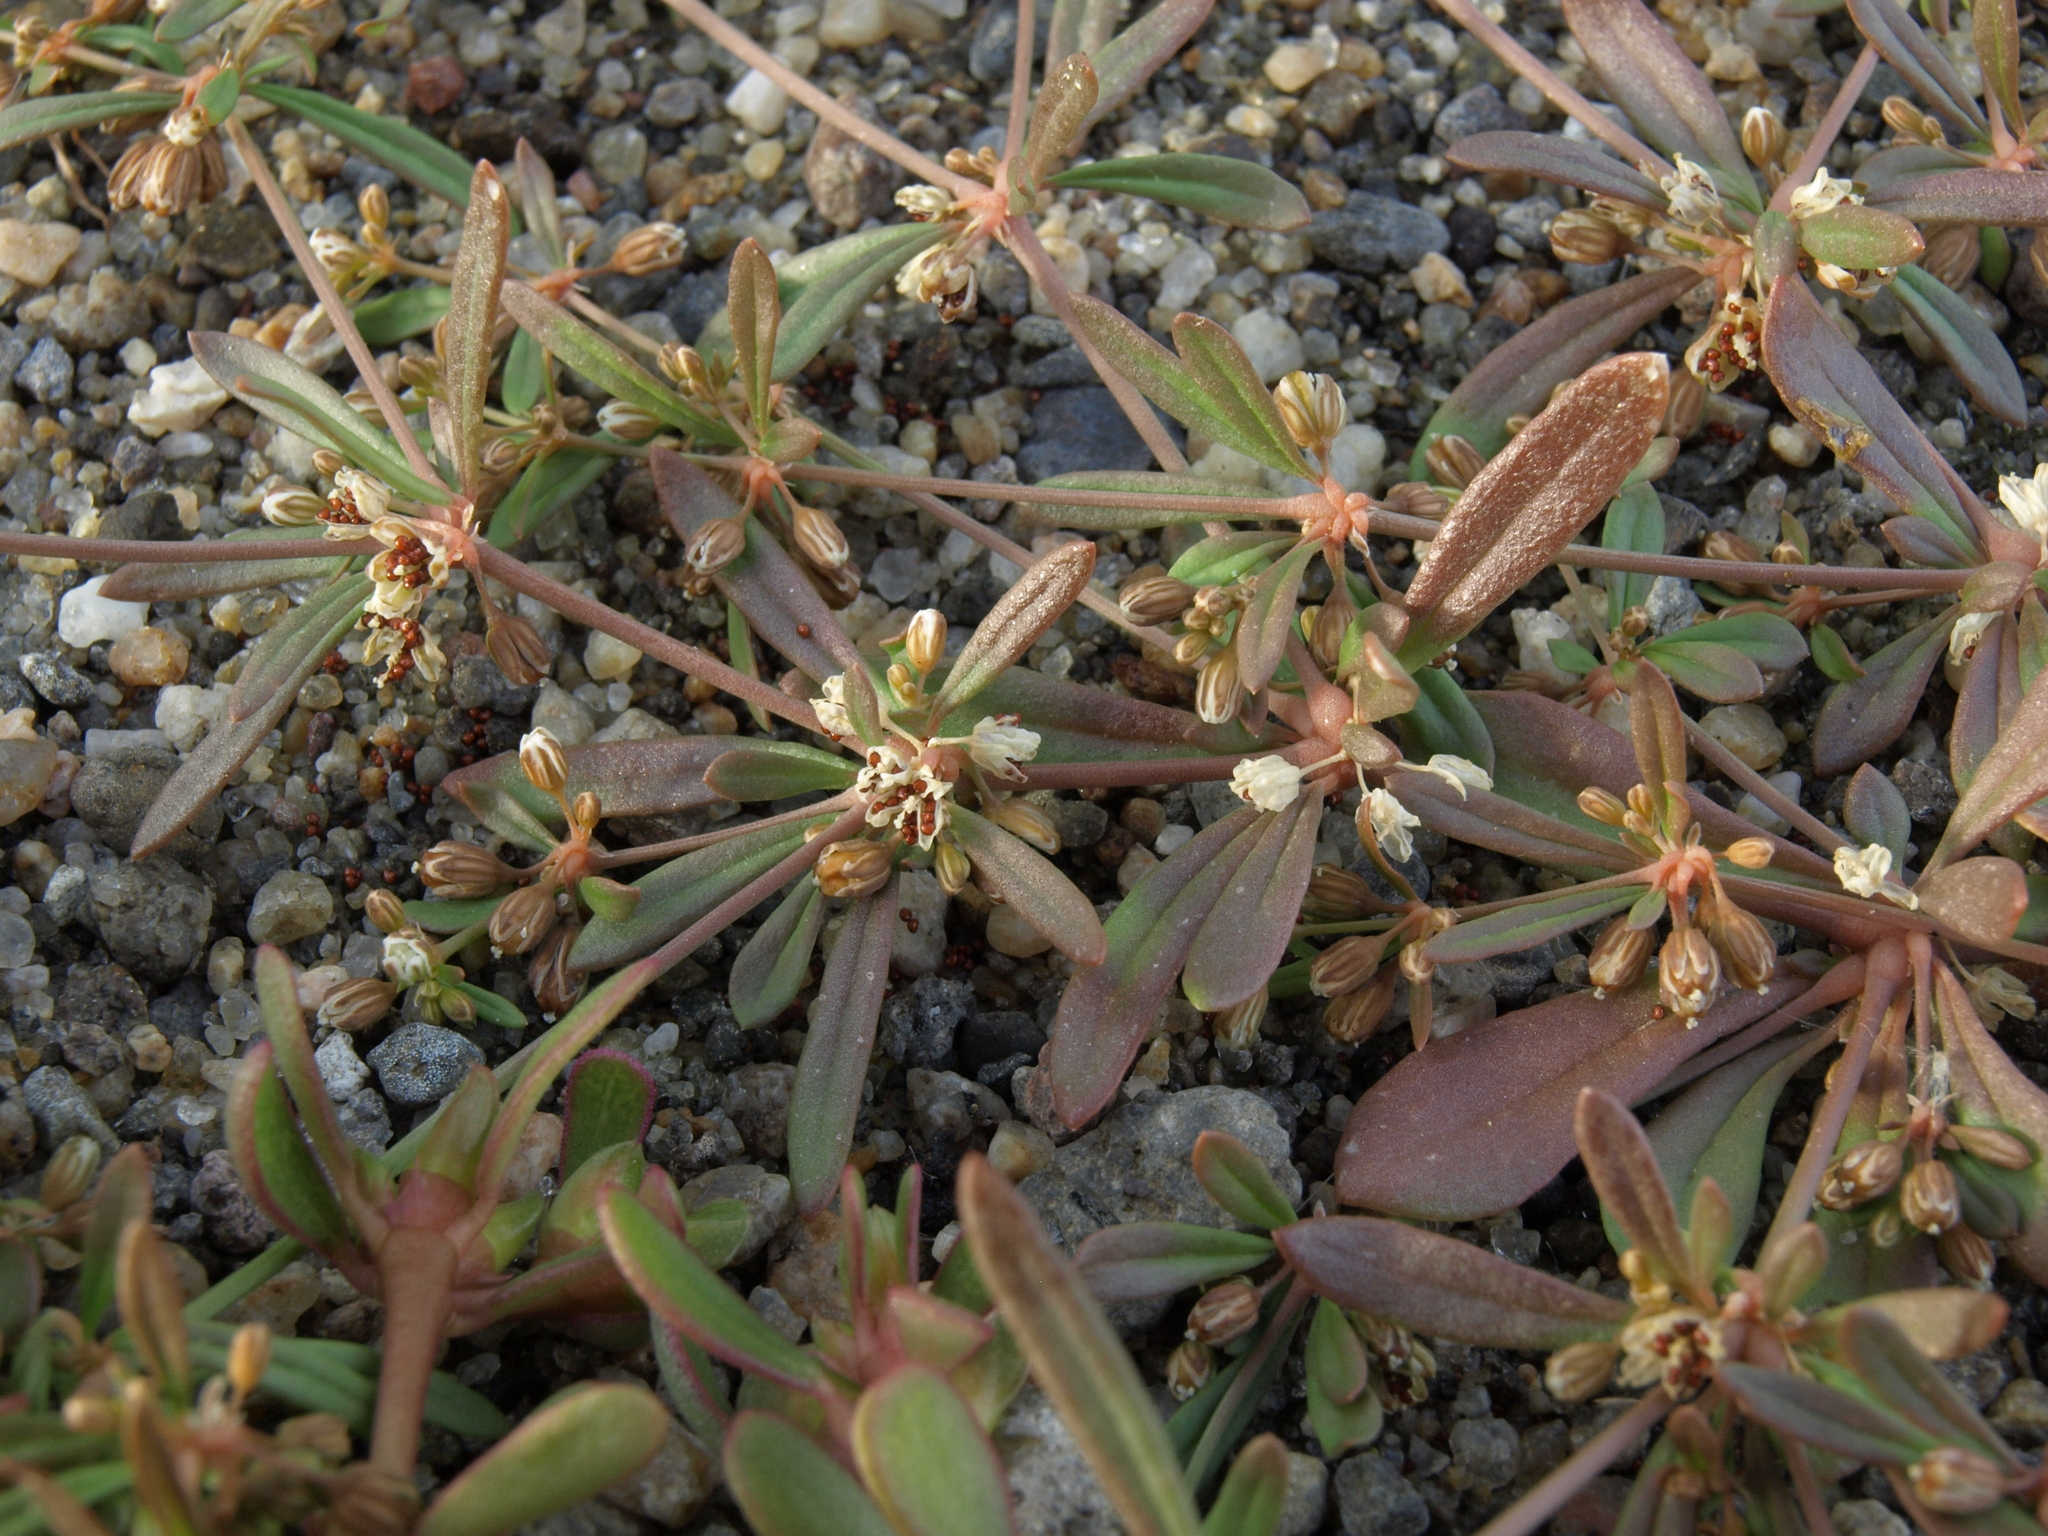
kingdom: Plantae
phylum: Tracheophyta
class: Magnoliopsida
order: Caryophyllales
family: Molluginaceae
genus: Mollugo
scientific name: Mollugo verticillata
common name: Green carpetweed
